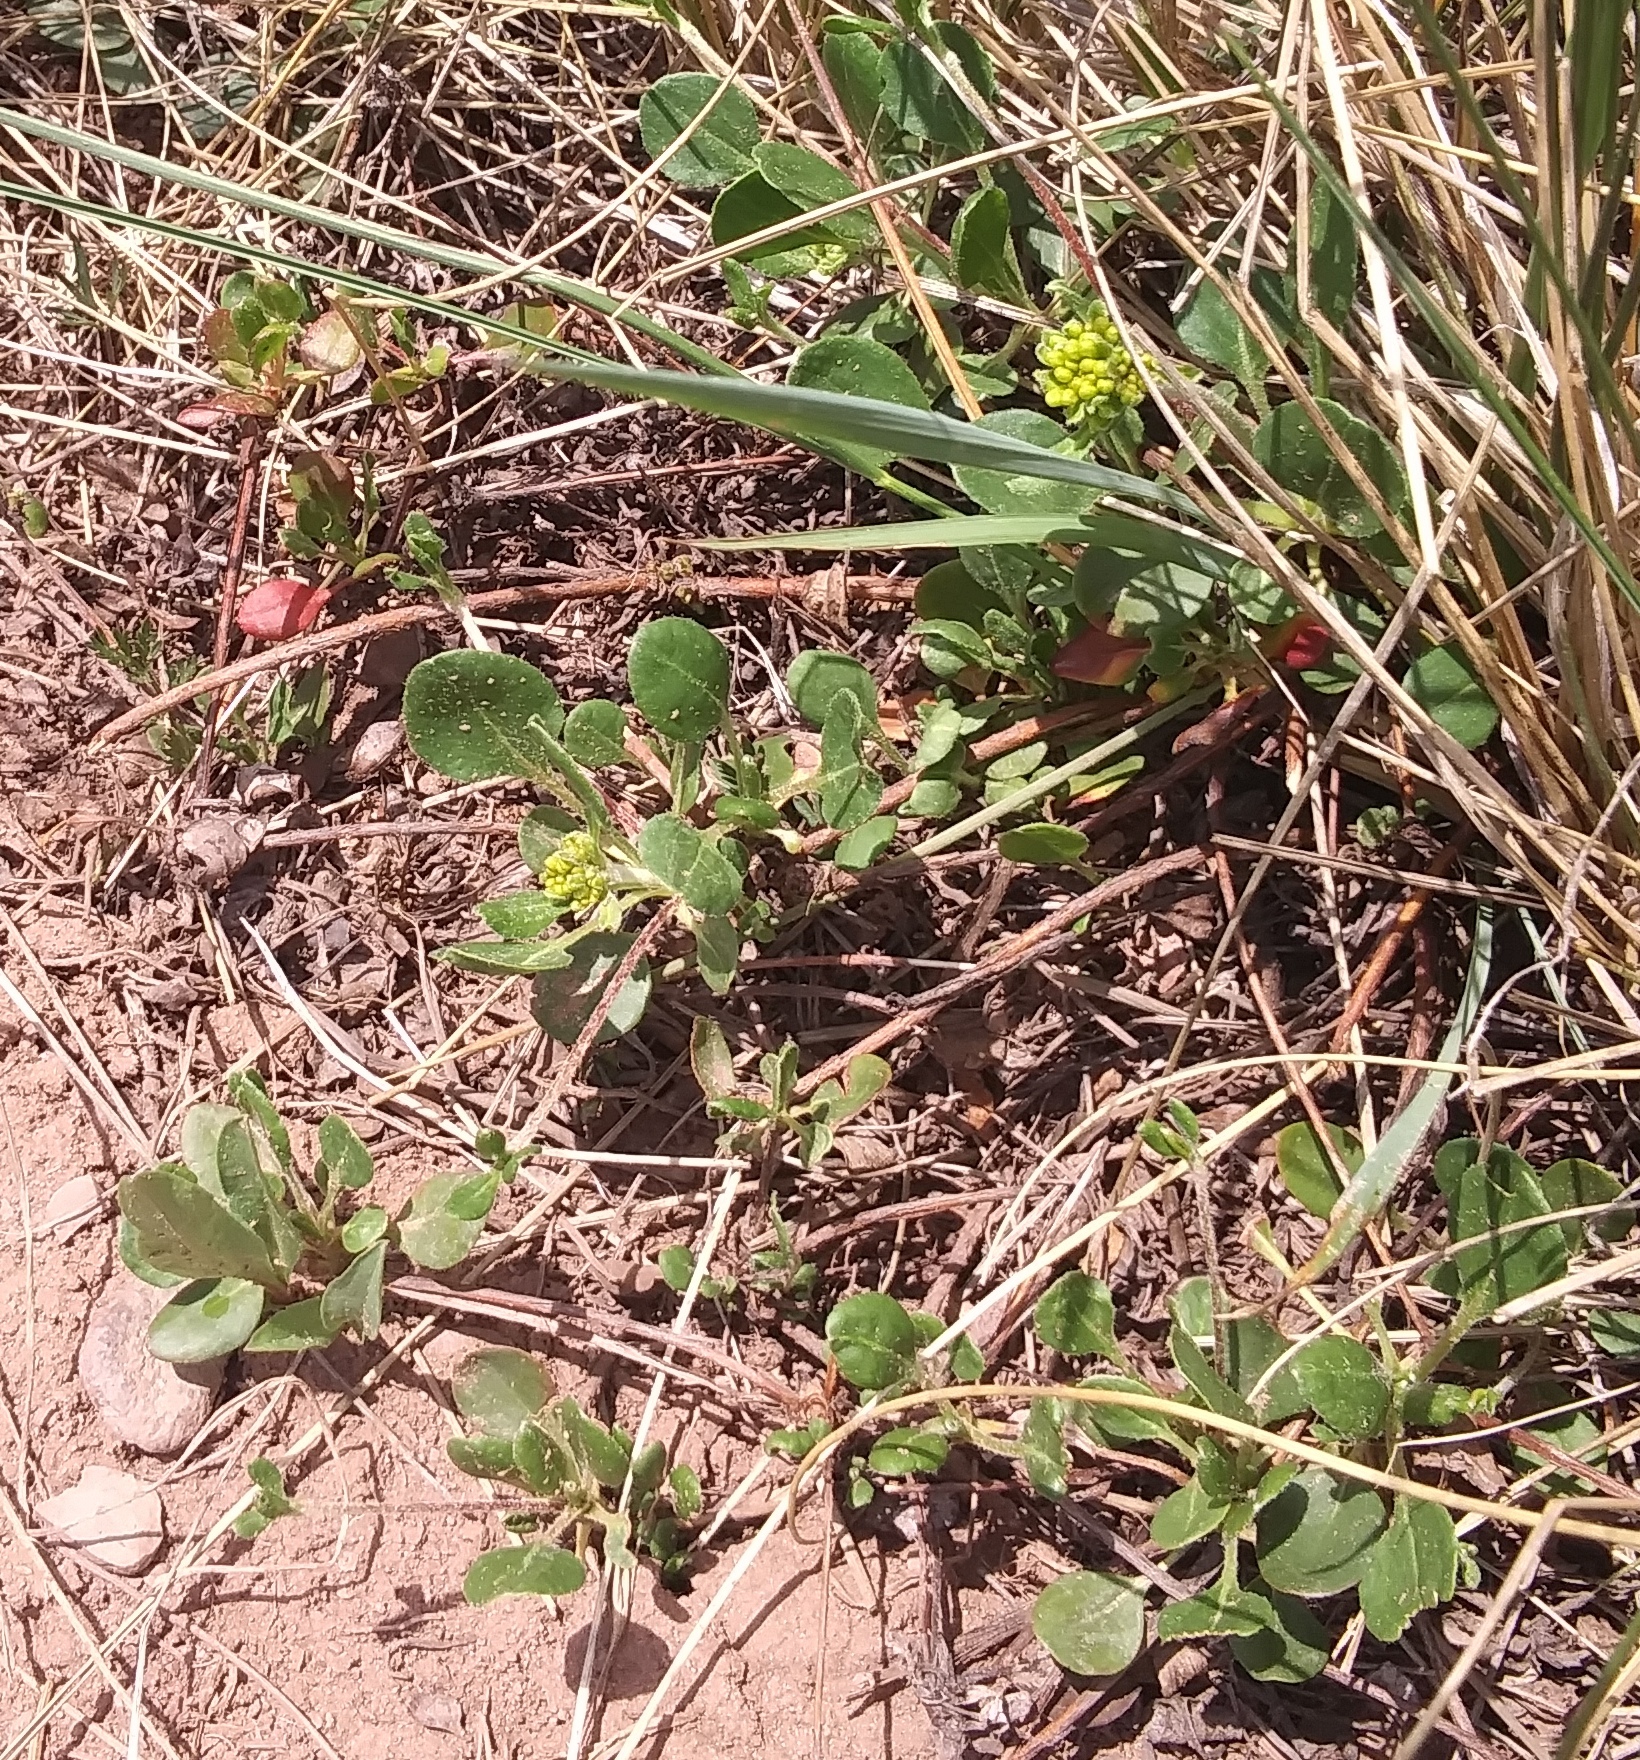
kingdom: Plantae
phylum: Tracheophyta
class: Magnoliopsida
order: Caryophyllales
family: Polygonaceae
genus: Eriogonum
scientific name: Eriogonum umbellatum
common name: Sulfur-buckwheat
